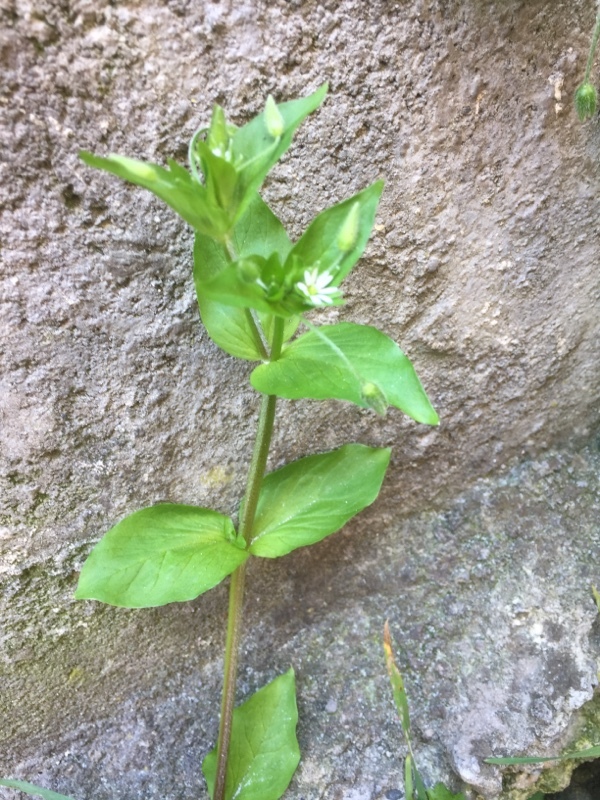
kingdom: Plantae
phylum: Tracheophyta
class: Magnoliopsida
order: Caryophyllales
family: Caryophyllaceae
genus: Stellaria
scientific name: Stellaria aquatica
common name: Water chickweed
